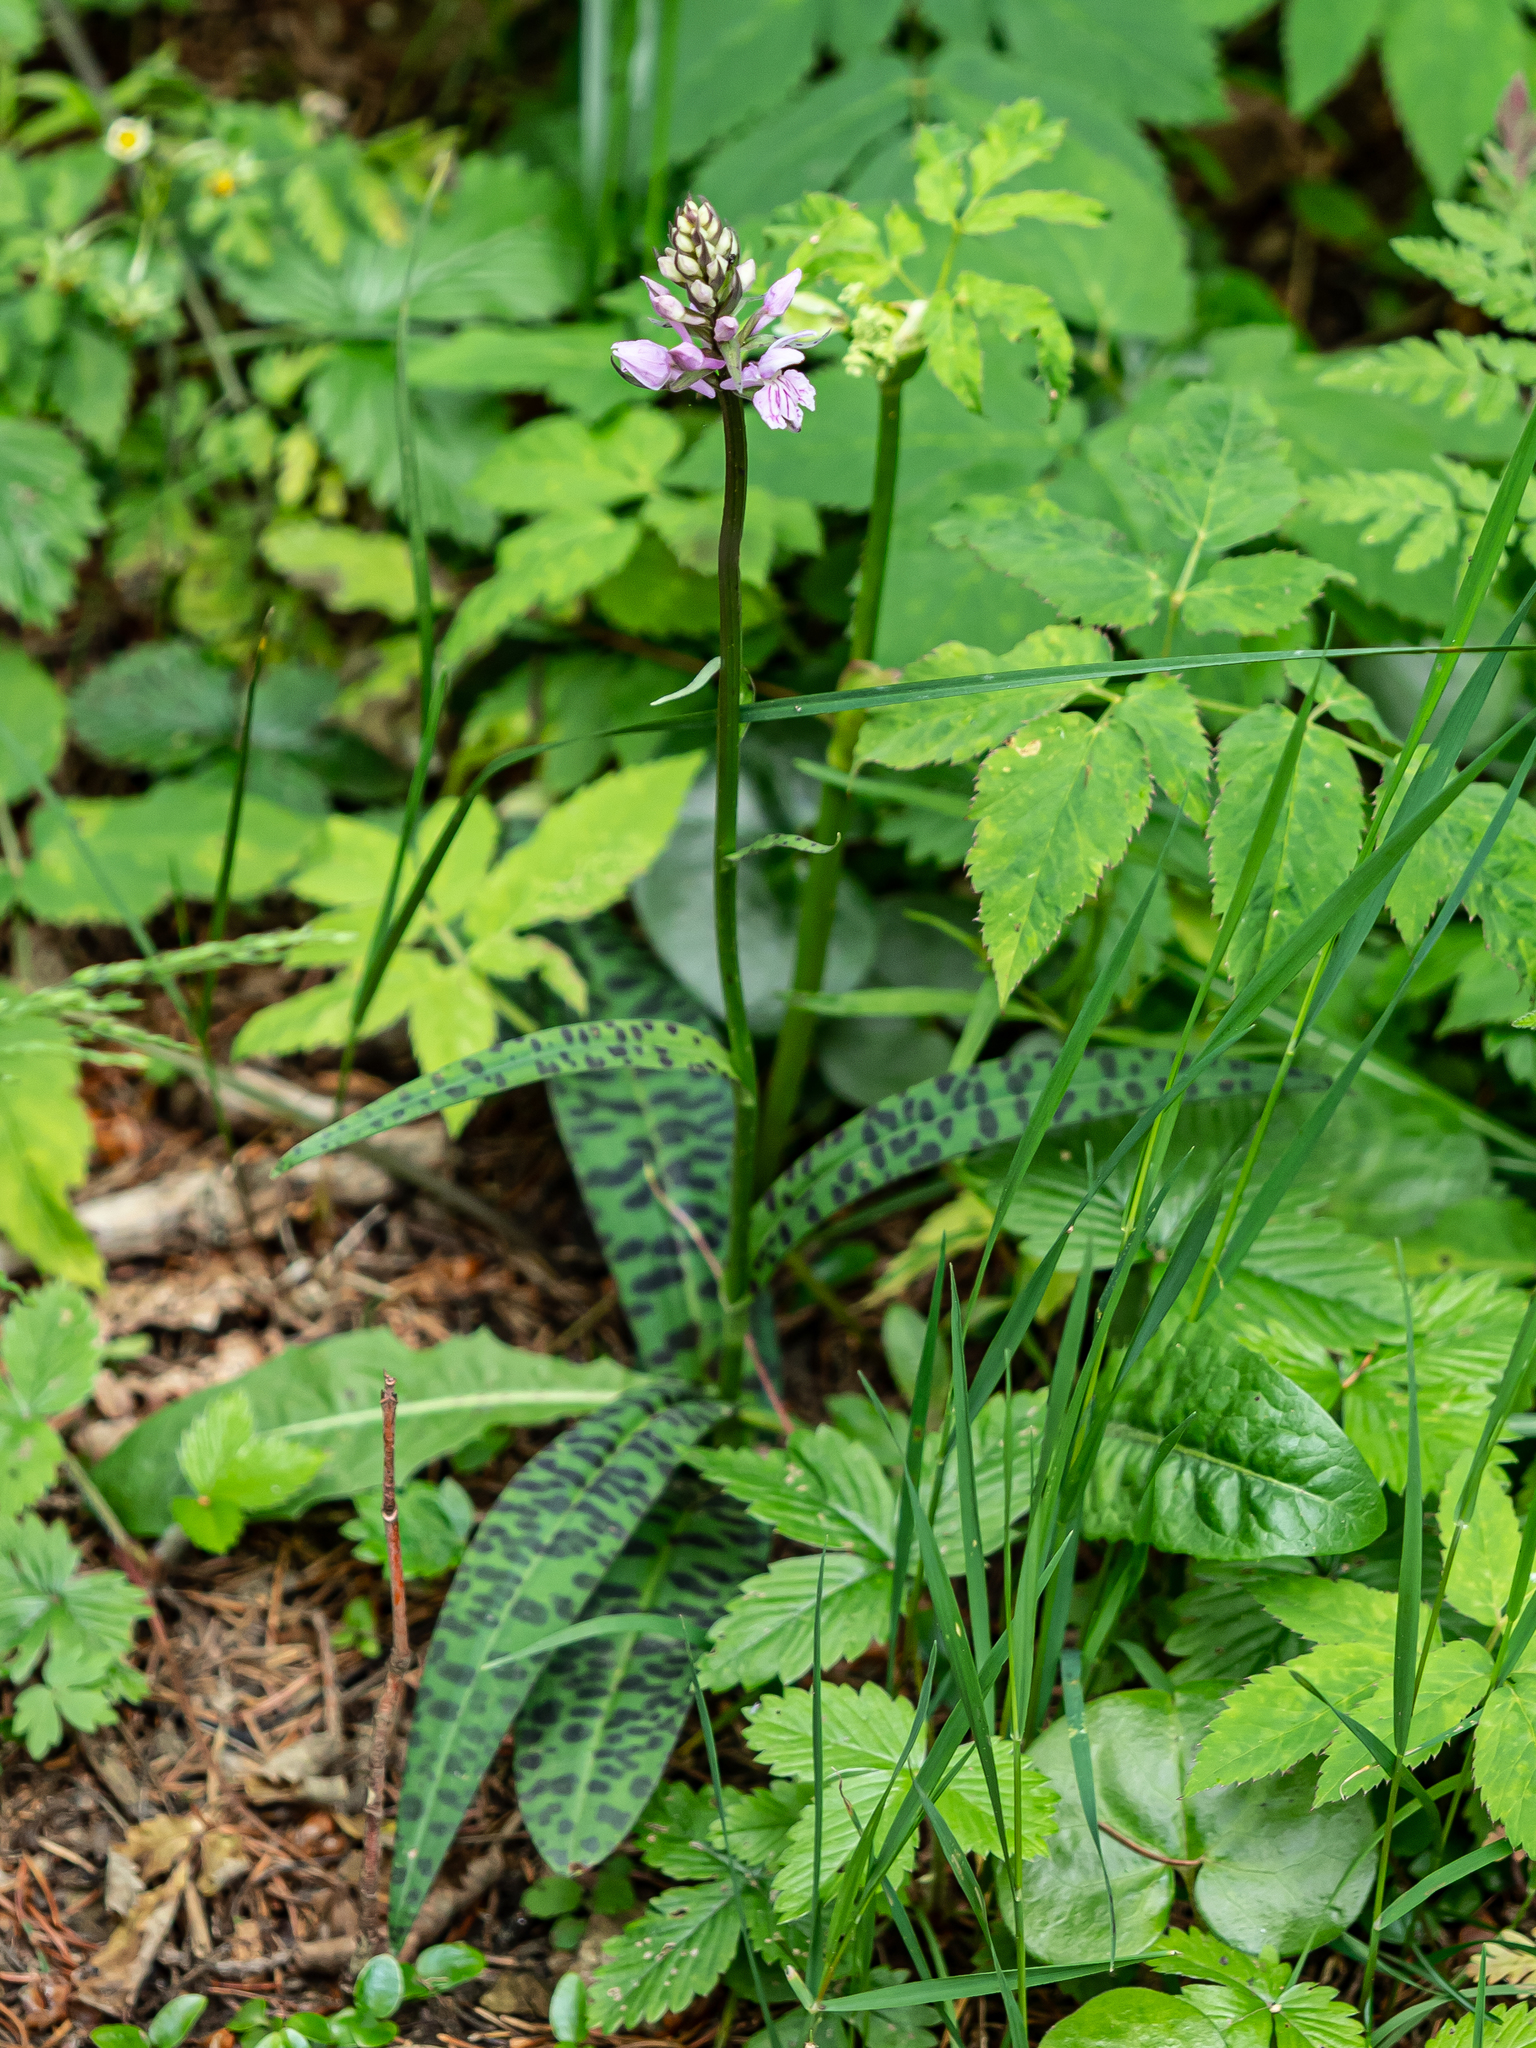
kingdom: Plantae
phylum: Tracheophyta
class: Liliopsida
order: Asparagales
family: Orchidaceae
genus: Dactylorhiza
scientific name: Dactylorhiza maculata
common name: Heath spotted-orchid
